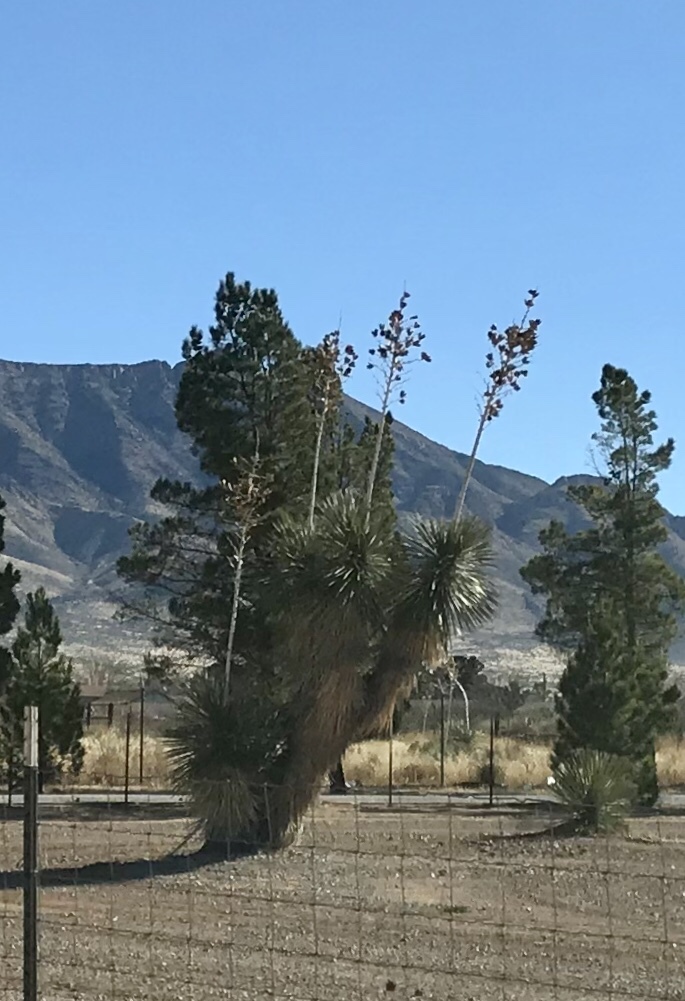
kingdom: Plantae
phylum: Tracheophyta
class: Liliopsida
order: Asparagales
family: Asparagaceae
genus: Yucca
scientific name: Yucca elata
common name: Palmella
